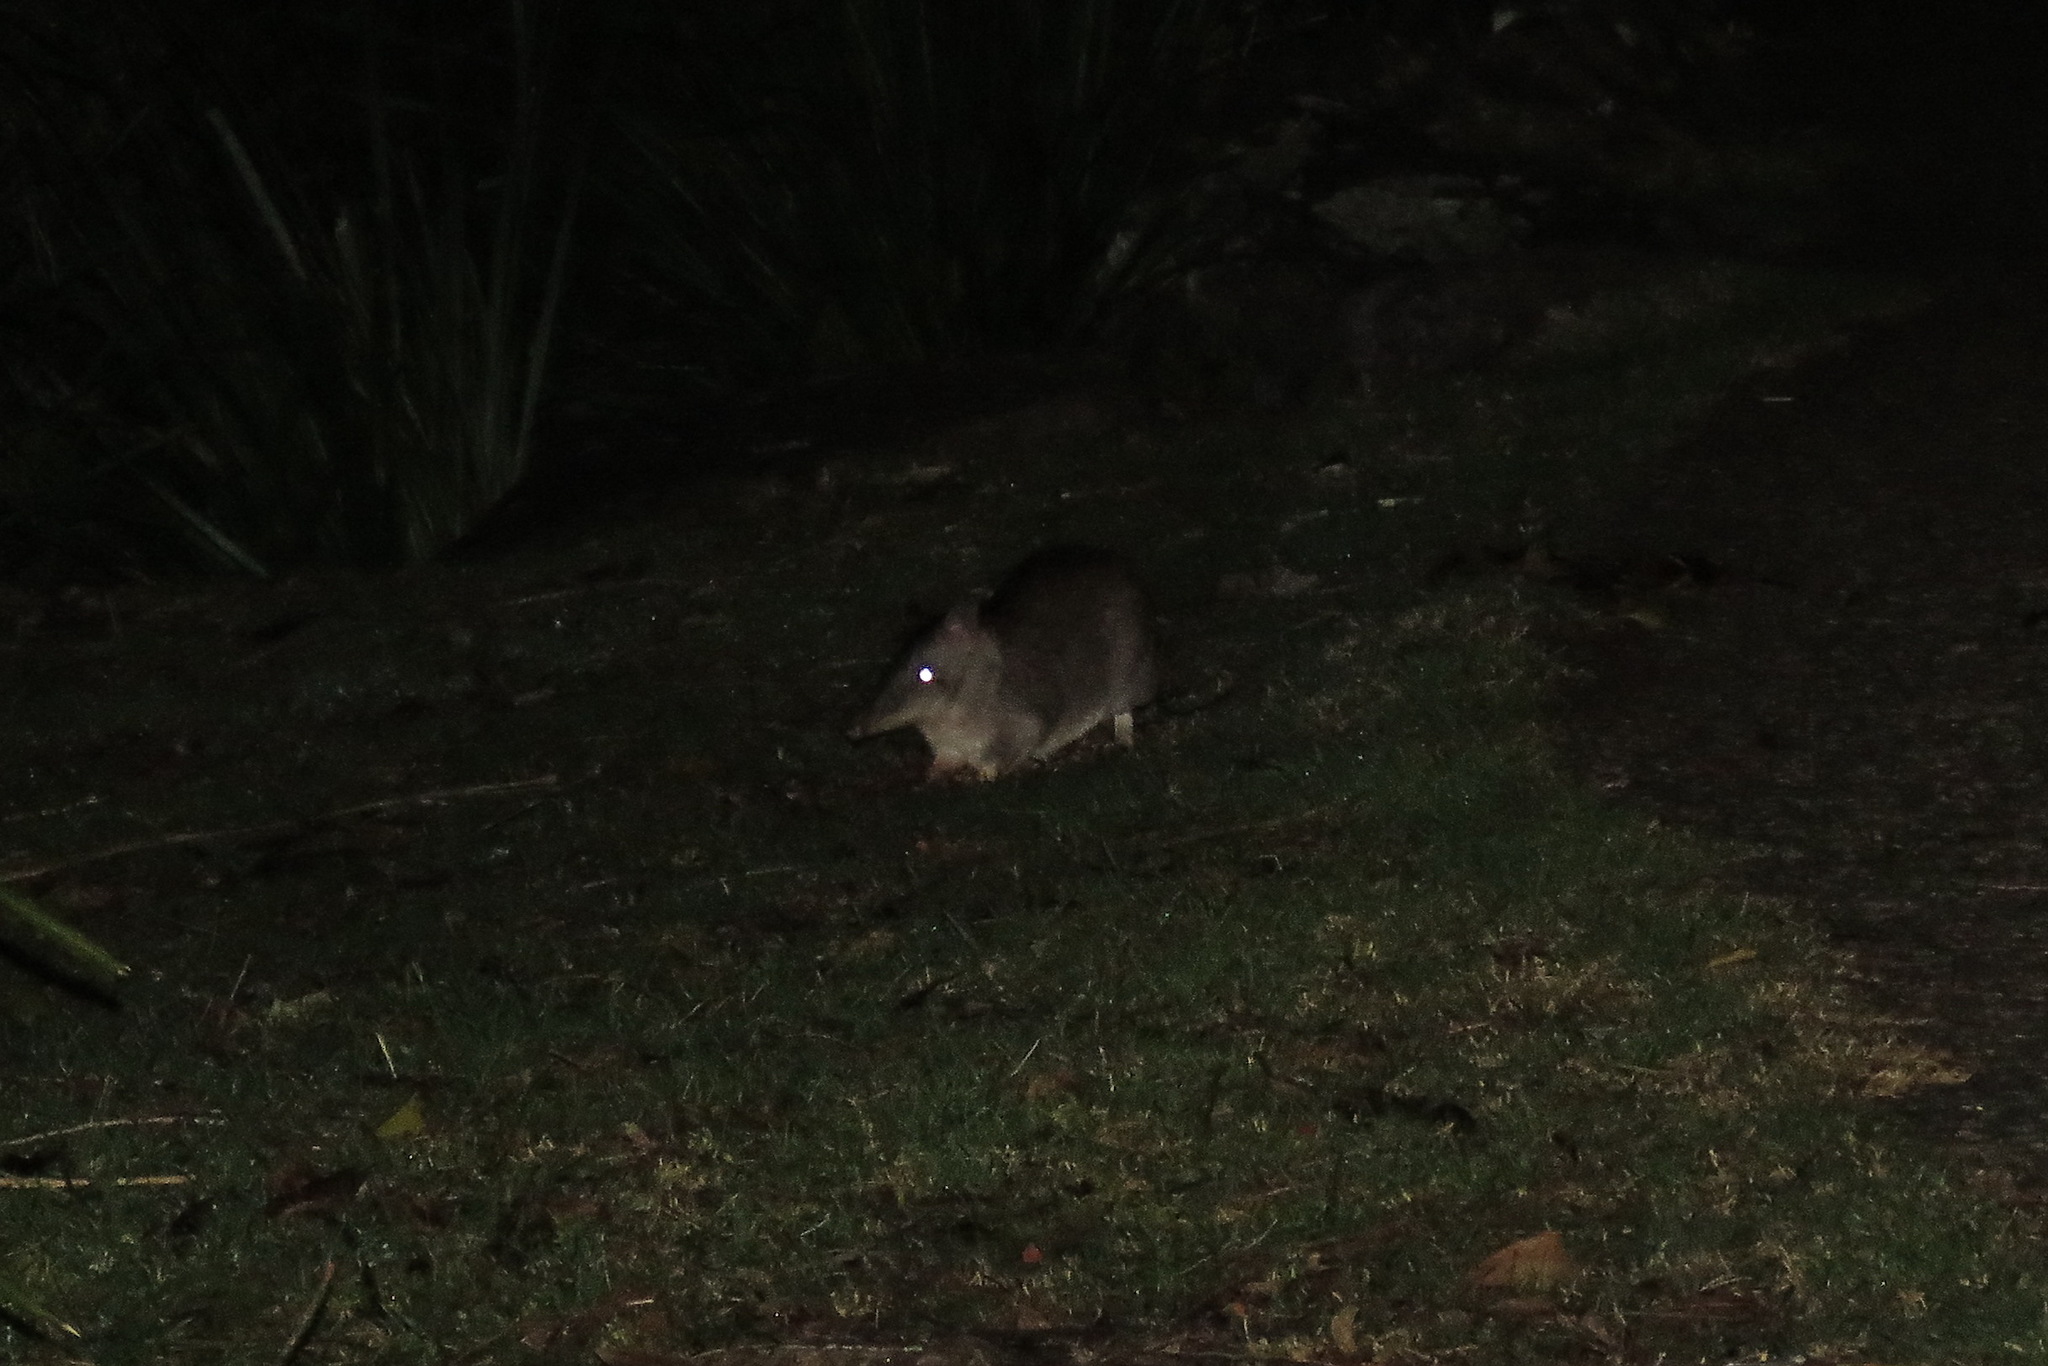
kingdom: Animalia
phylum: Chordata
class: Mammalia
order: Peramelemorphia
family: Peramelidae
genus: Perameles
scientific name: Perameles nasuta
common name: Long-nosed bandicoot
